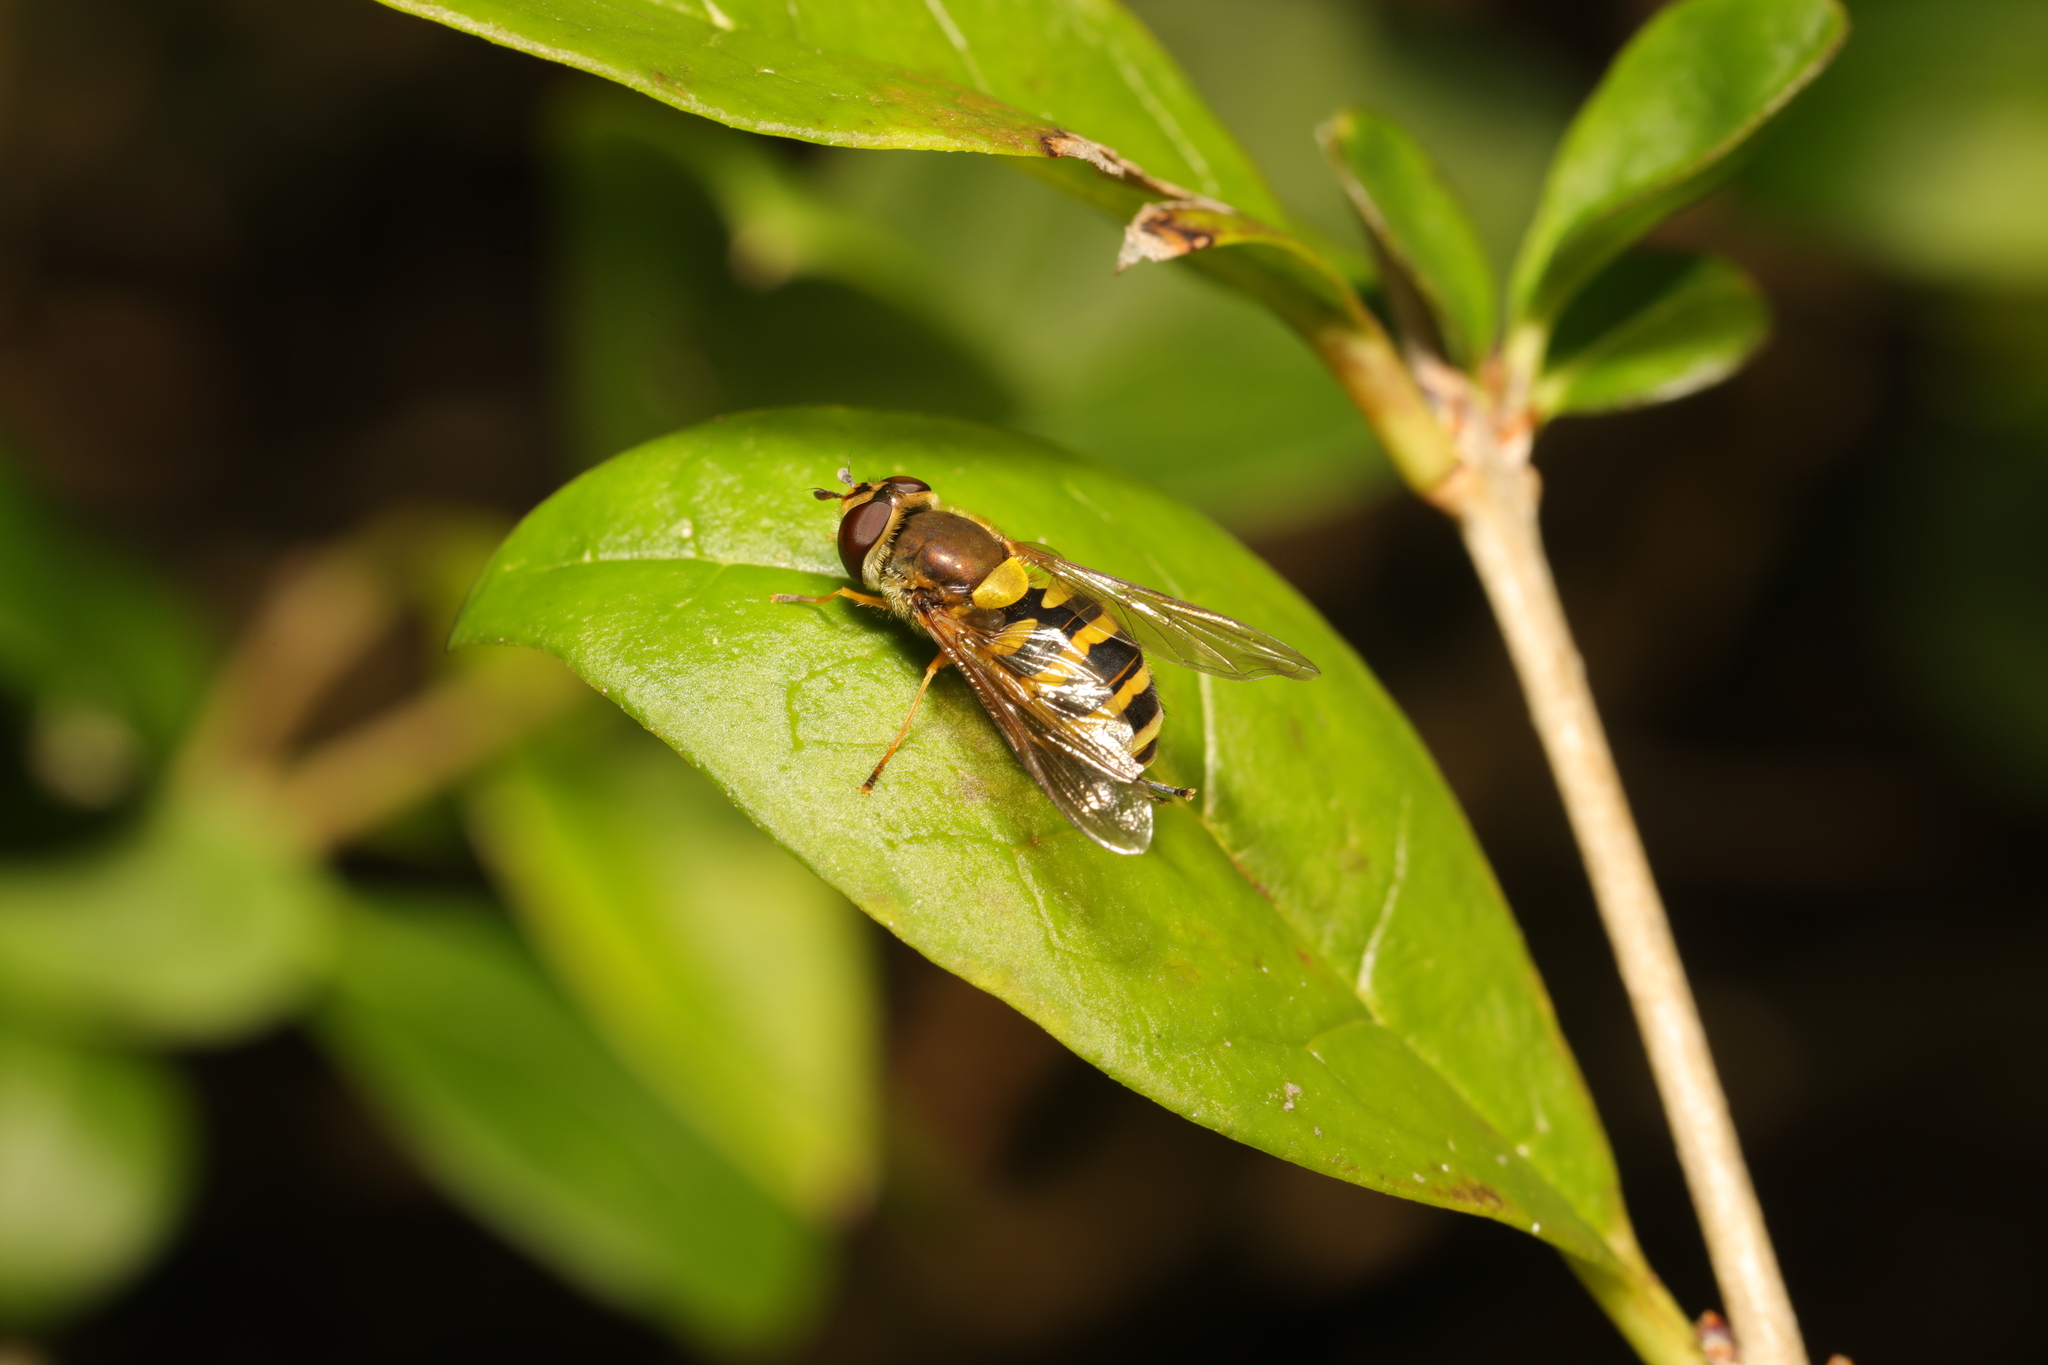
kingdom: Animalia
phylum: Arthropoda
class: Insecta
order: Diptera
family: Syrphidae
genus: Syrphus
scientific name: Syrphus
